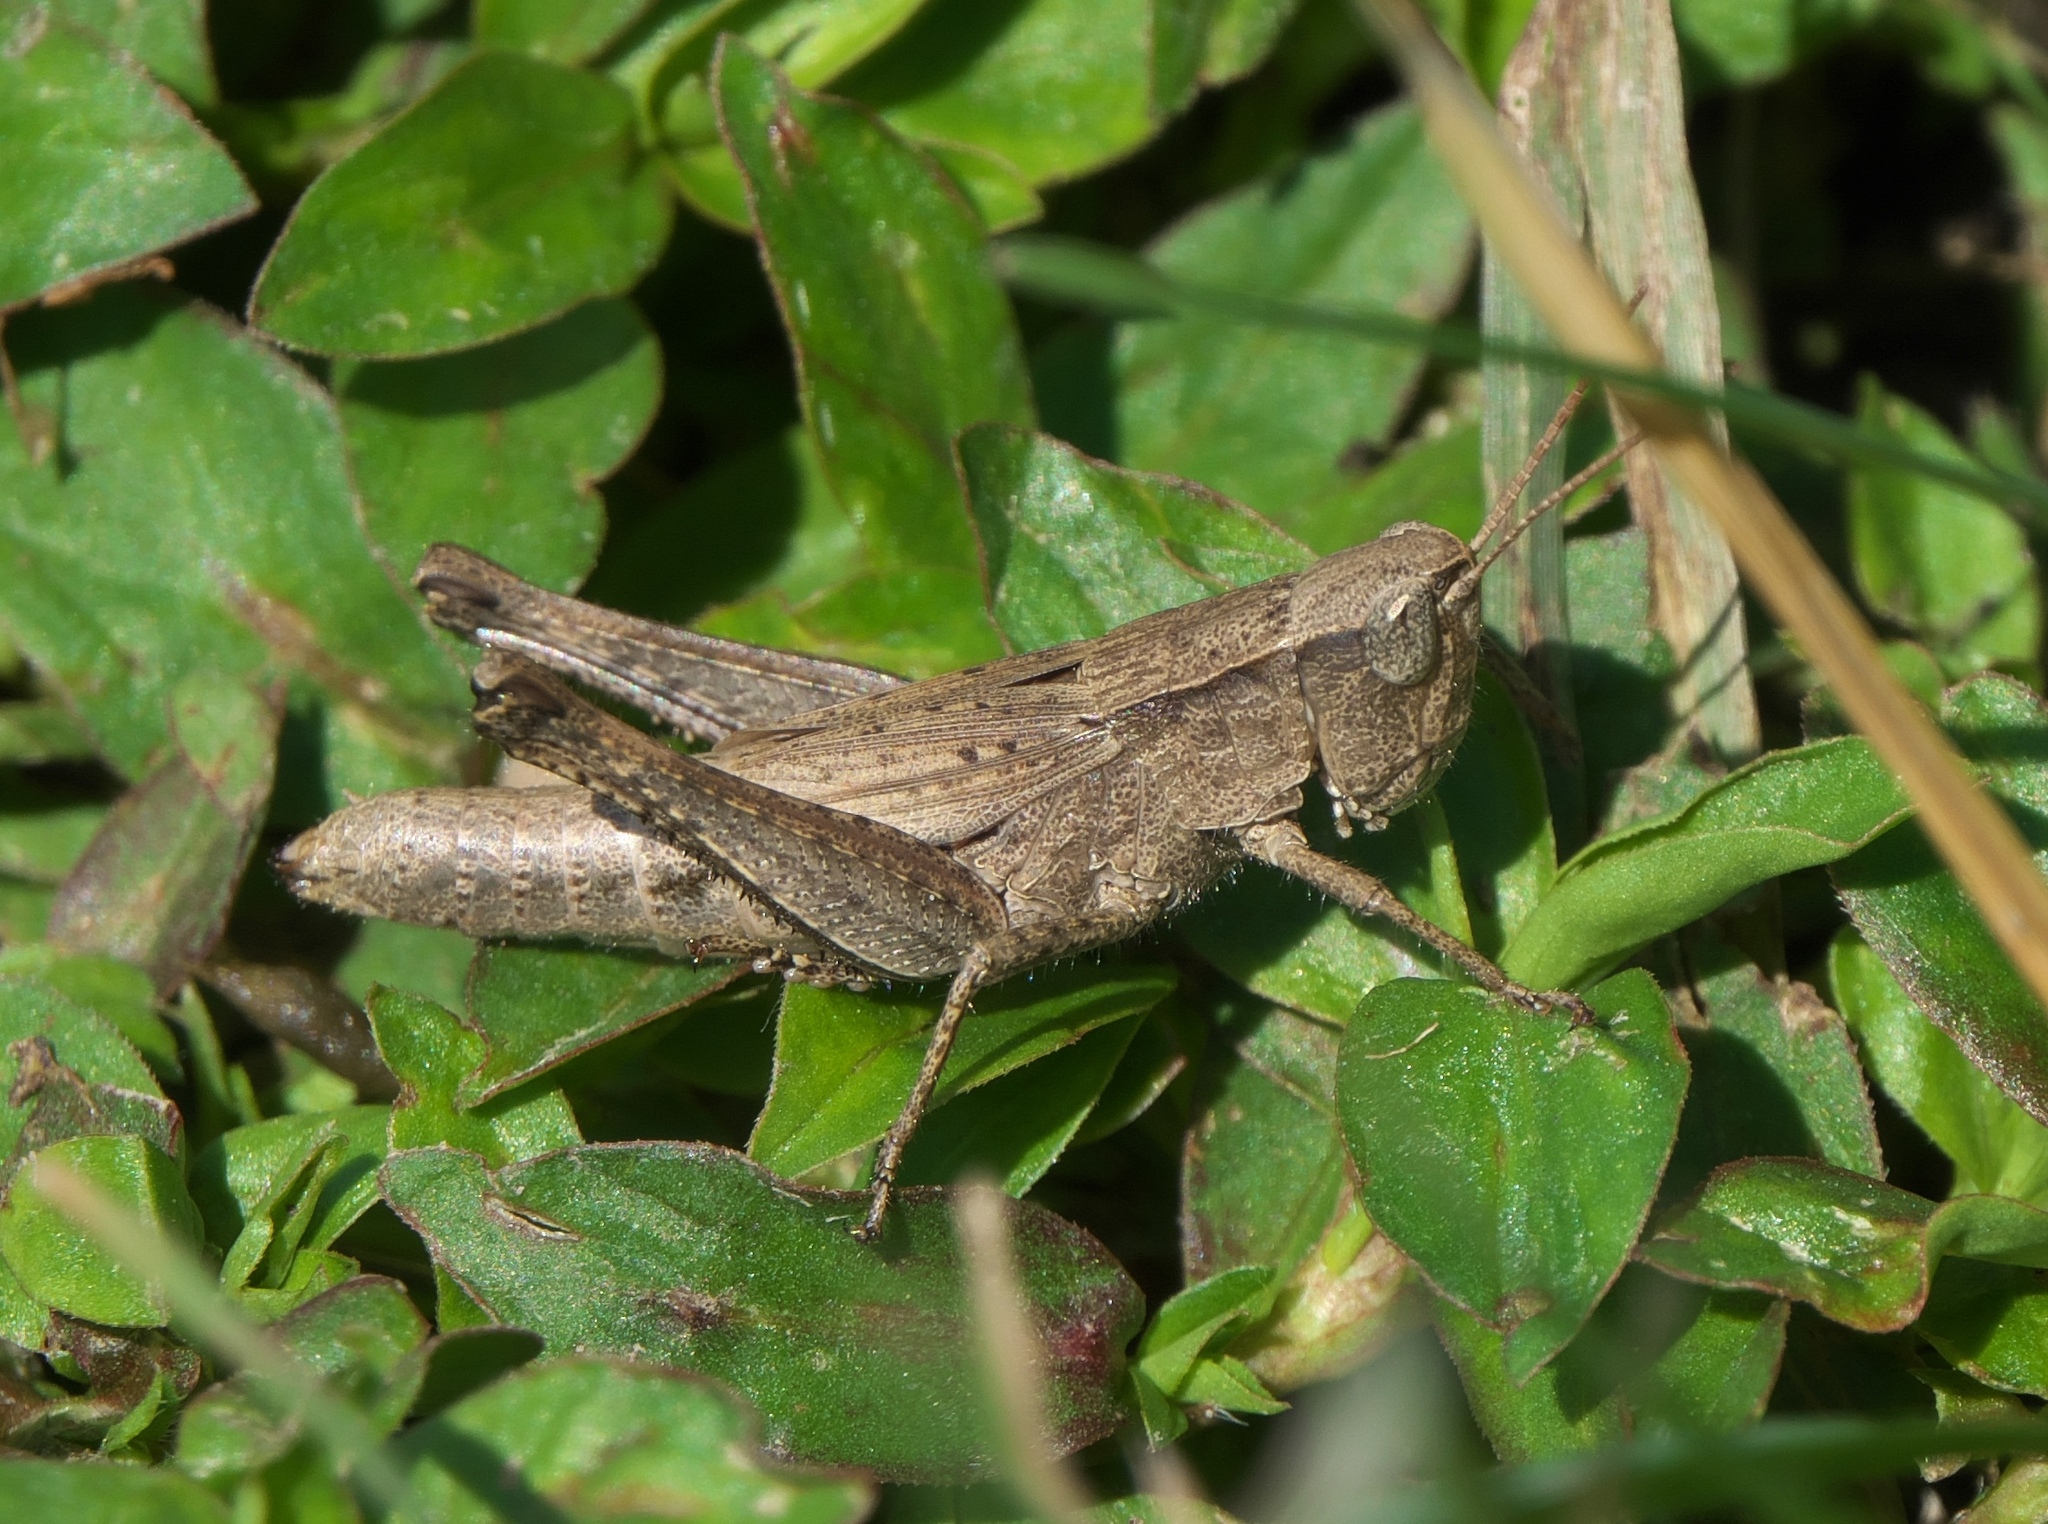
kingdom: Animalia
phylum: Arthropoda
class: Insecta
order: Orthoptera
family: Acrididae
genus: Dichromorpha
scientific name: Dichromorpha viridis
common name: Short-winged green grasshopper
